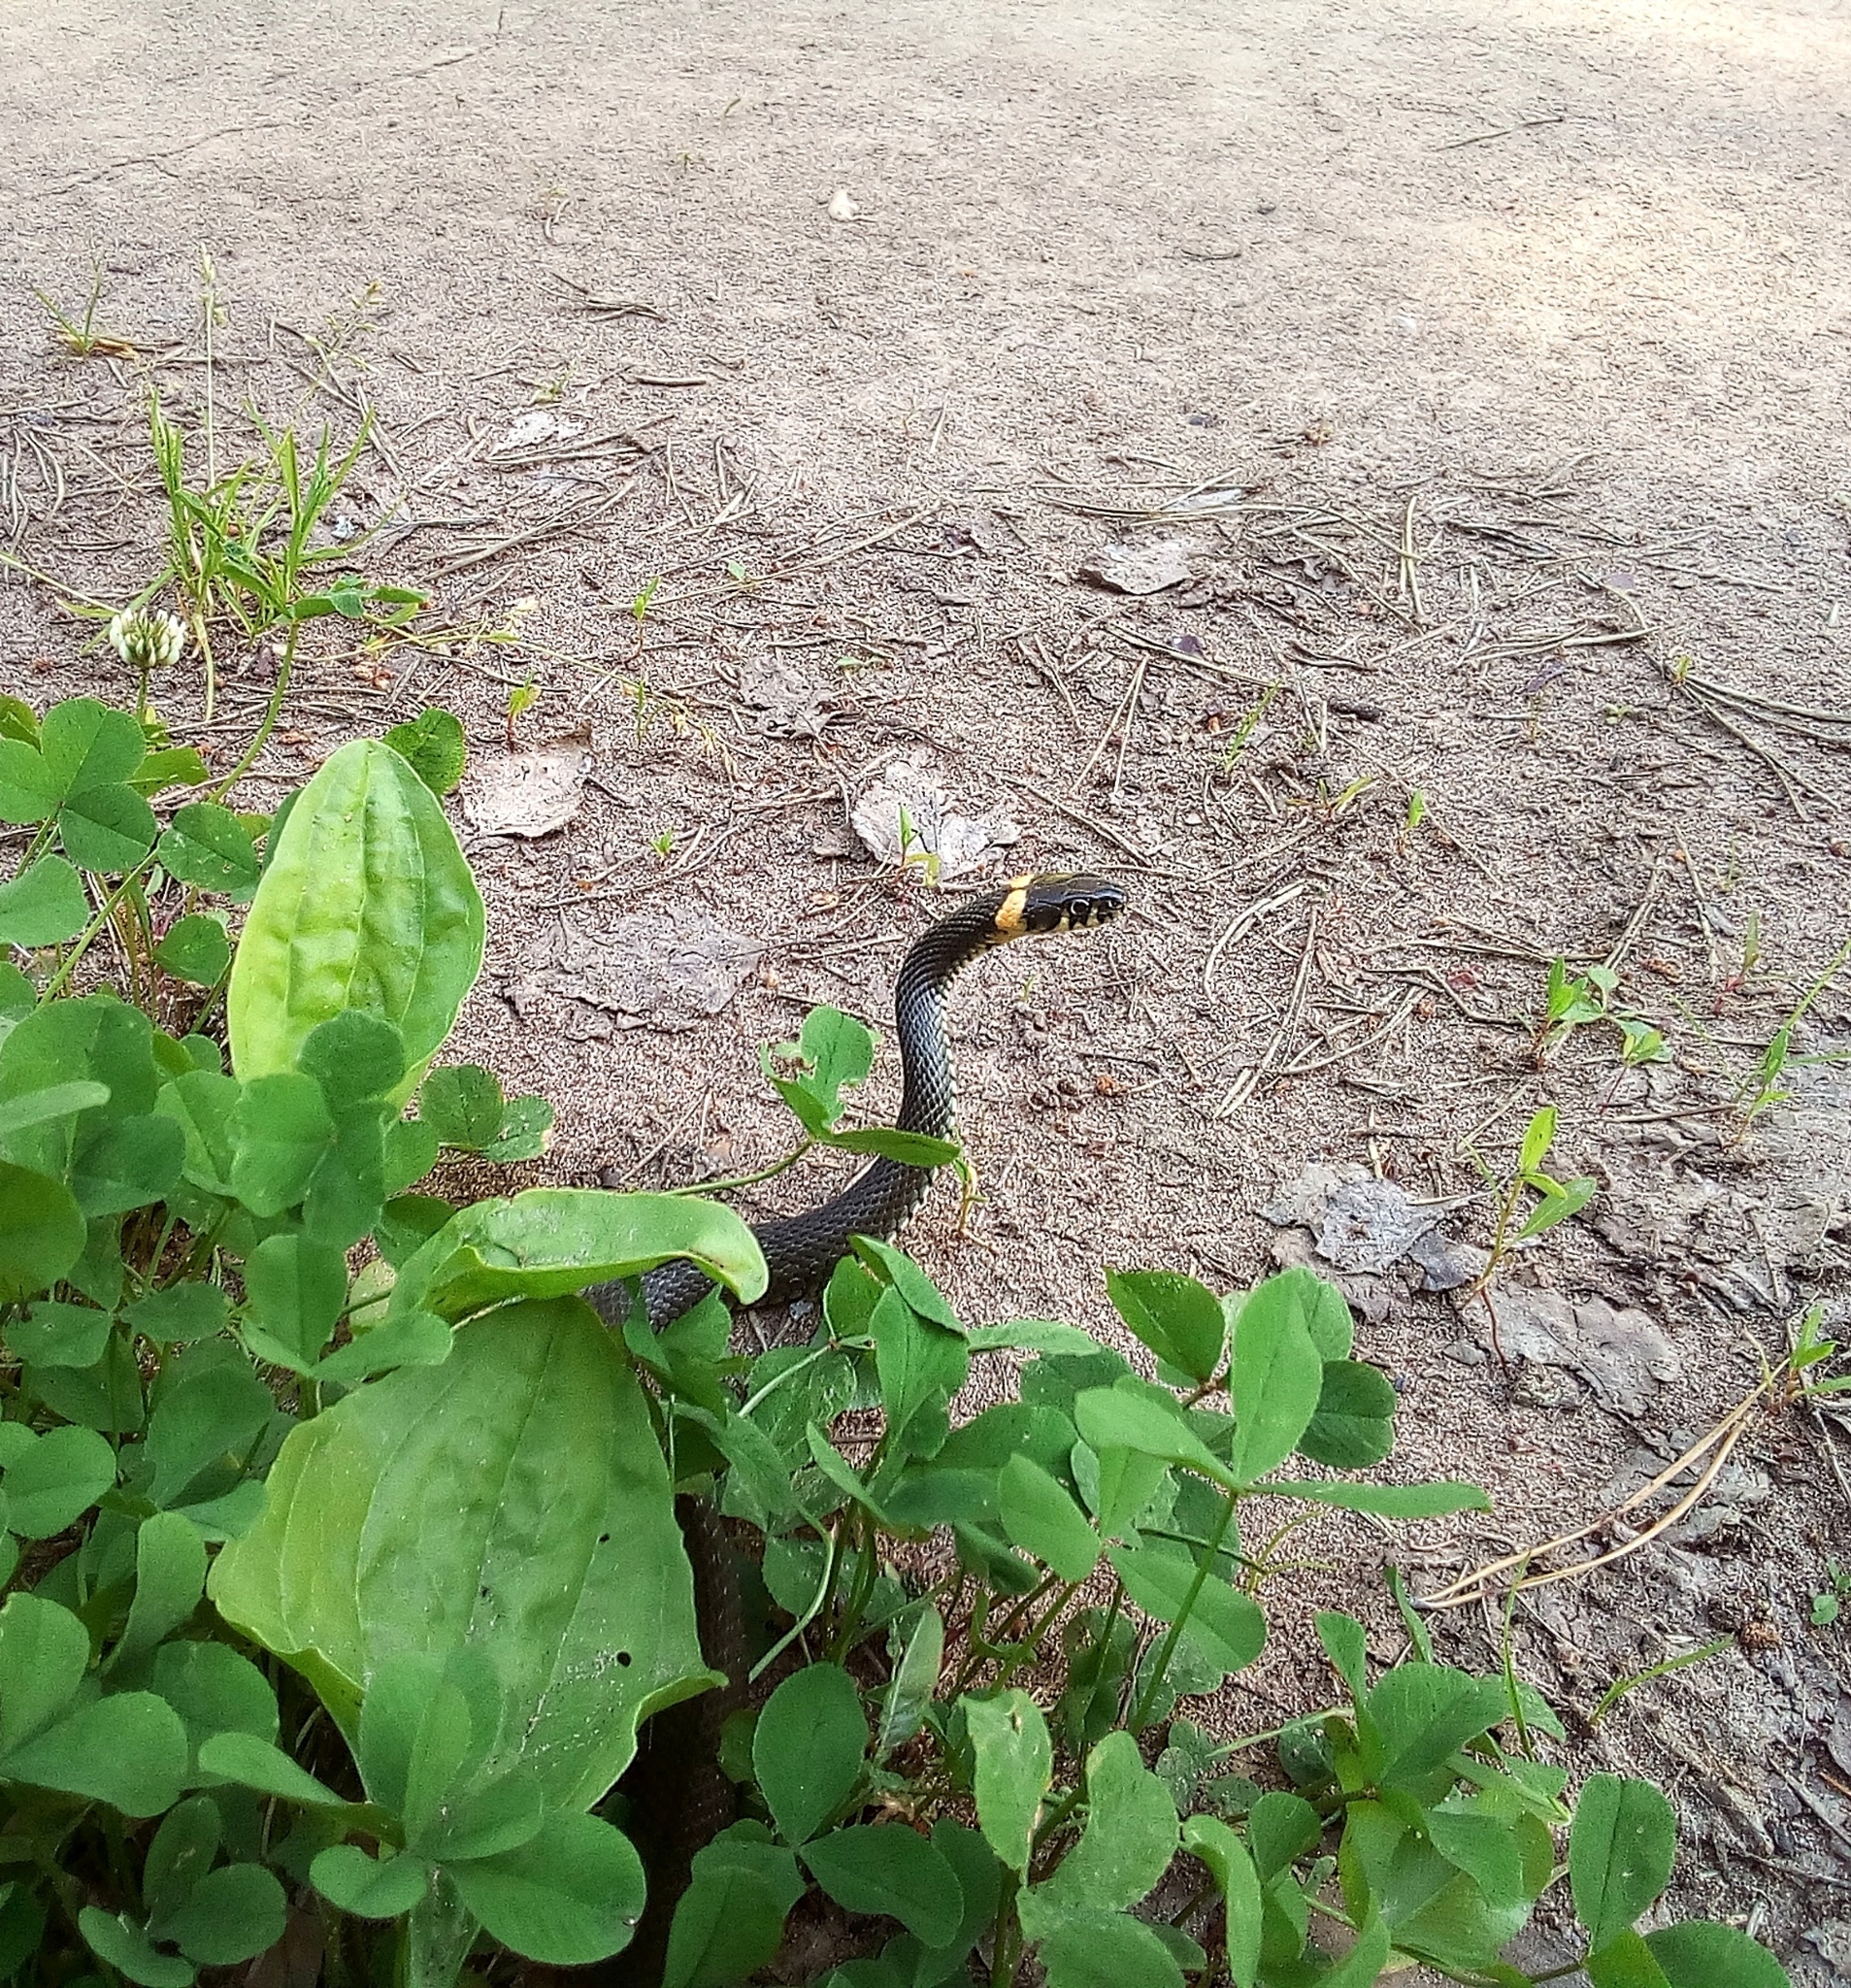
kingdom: Animalia
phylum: Chordata
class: Squamata
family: Colubridae
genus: Natrix
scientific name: Natrix natrix
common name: Grass snake
